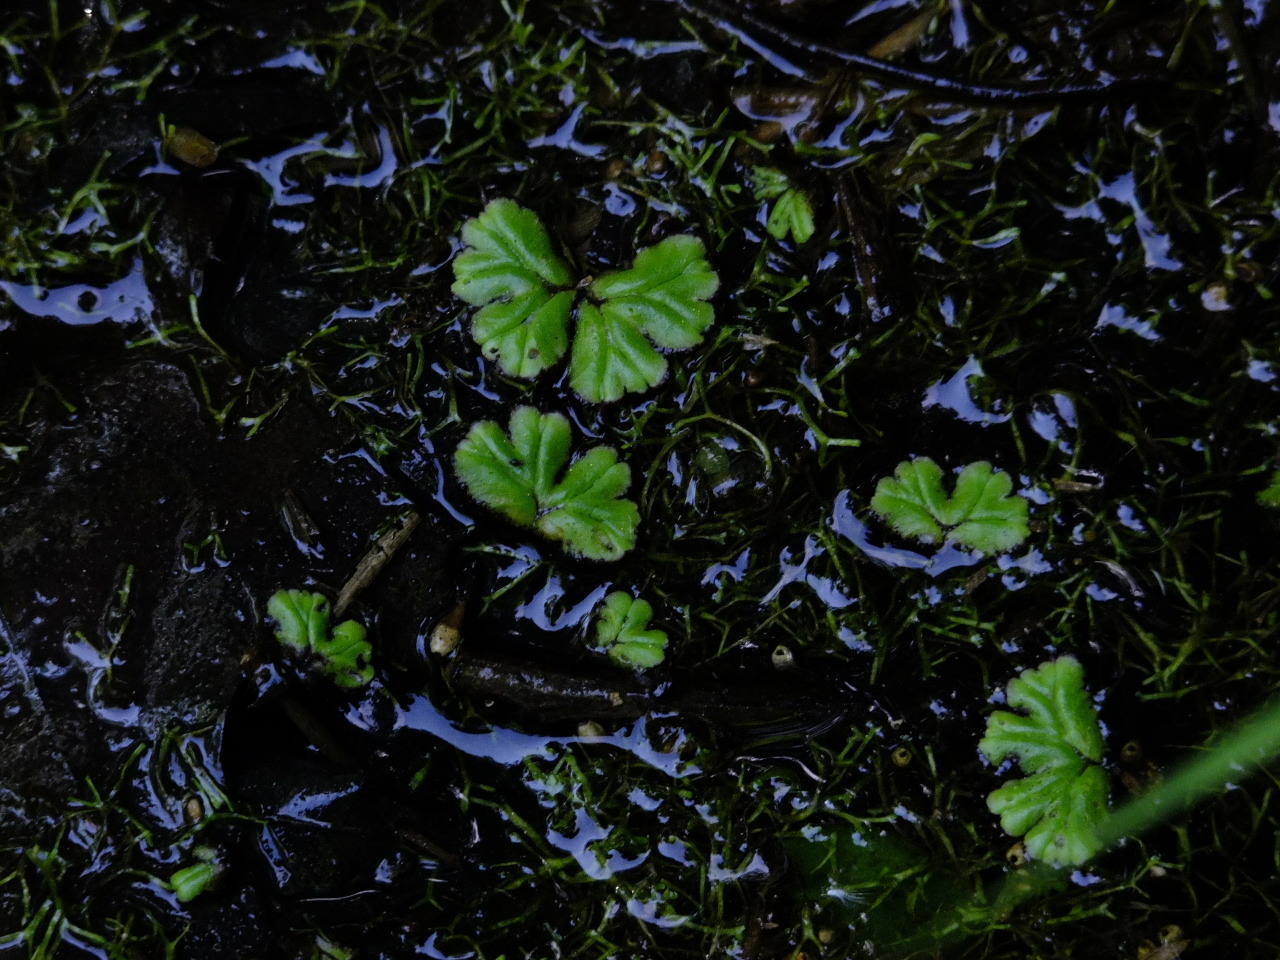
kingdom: Plantae
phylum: Marchantiophyta
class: Marchantiopsida
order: Marchantiales
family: Ricciaceae
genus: Ricciocarpos
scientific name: Ricciocarpos natans
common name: Purple-fringed liverwort
